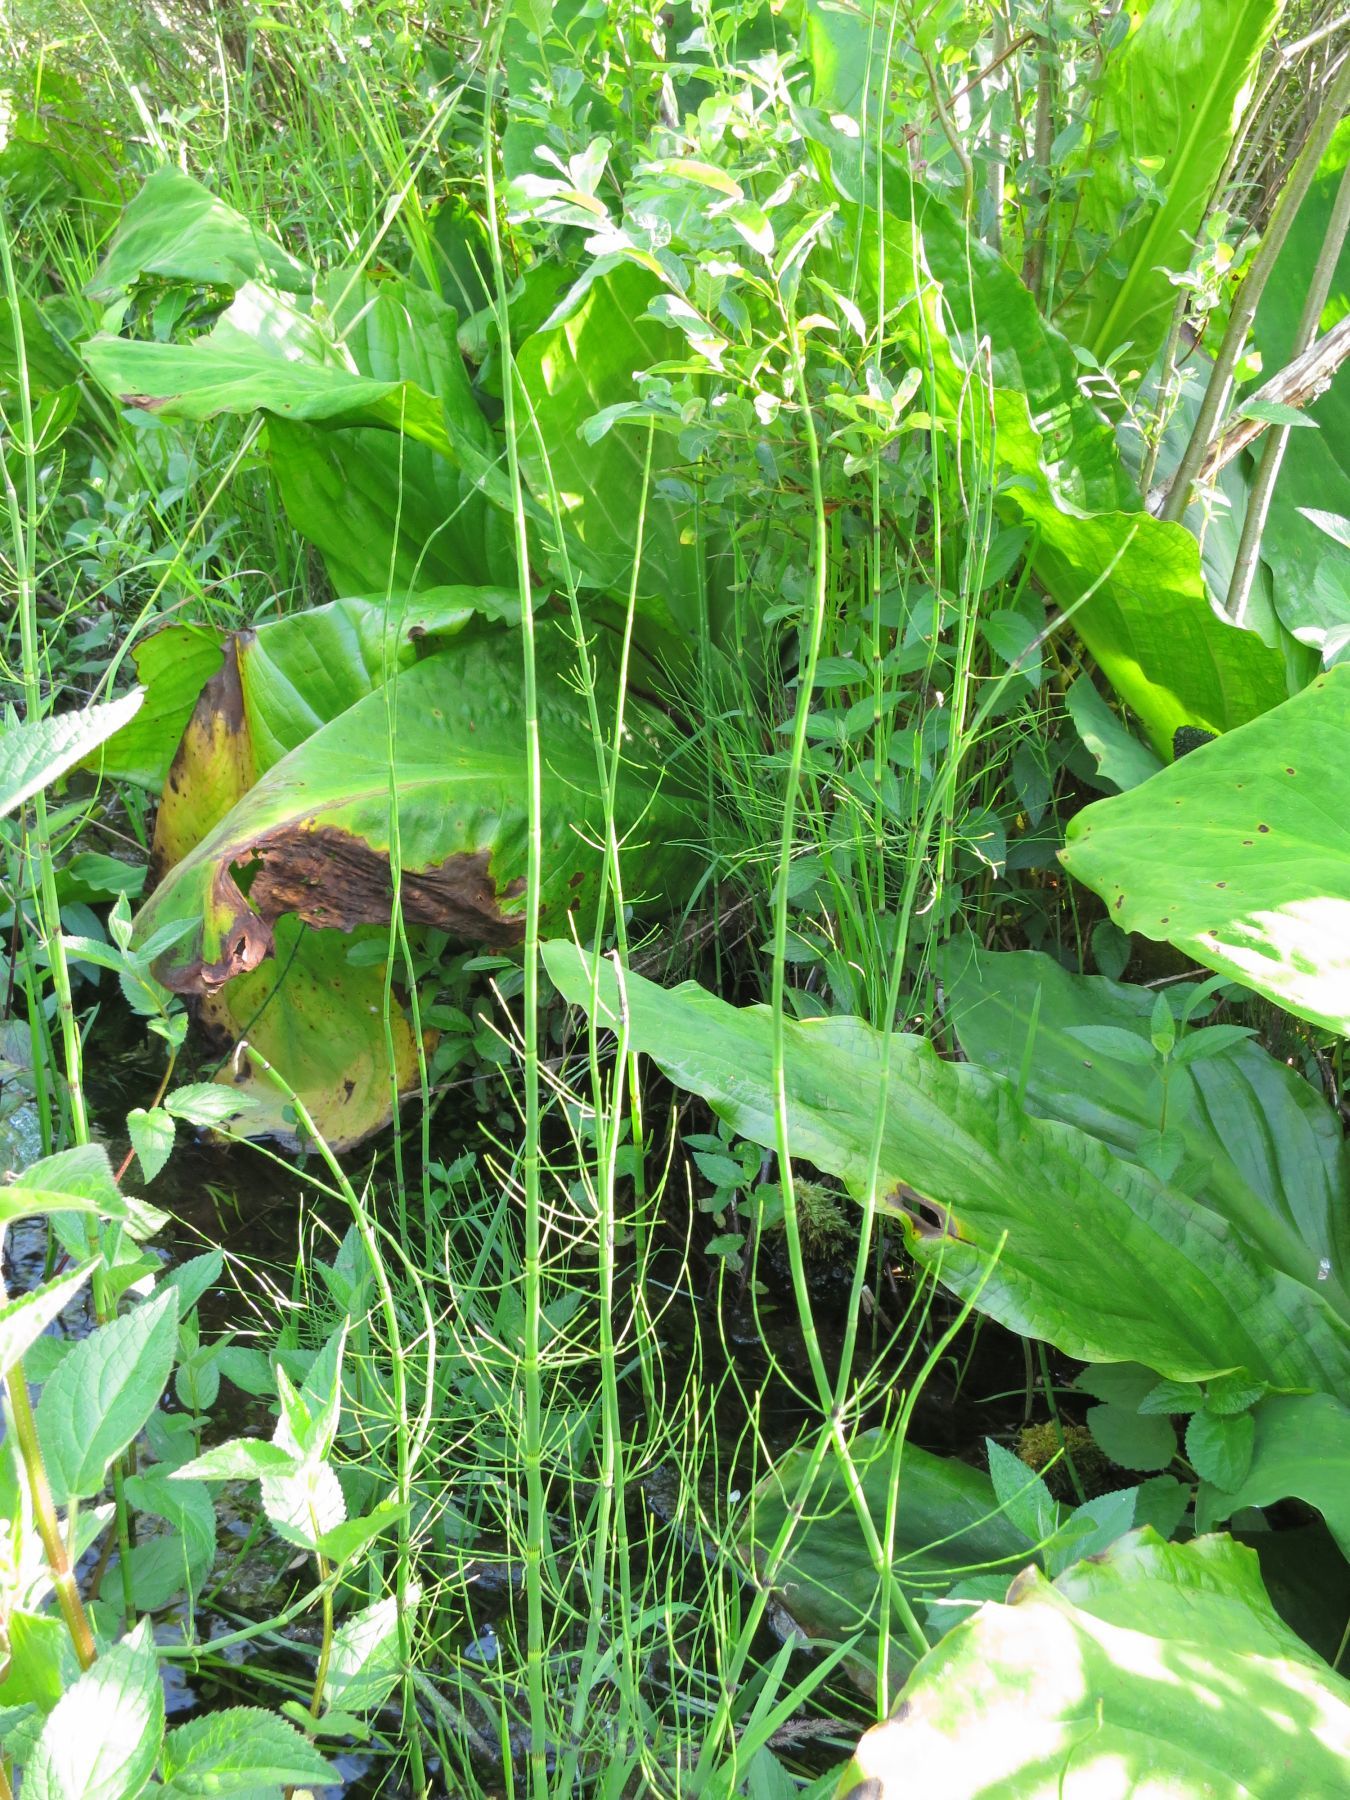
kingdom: Plantae
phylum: Tracheophyta
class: Polypodiopsida
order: Equisetales
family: Equisetaceae
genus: Equisetum
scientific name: Equisetum fluviatile
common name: Water horsetail
